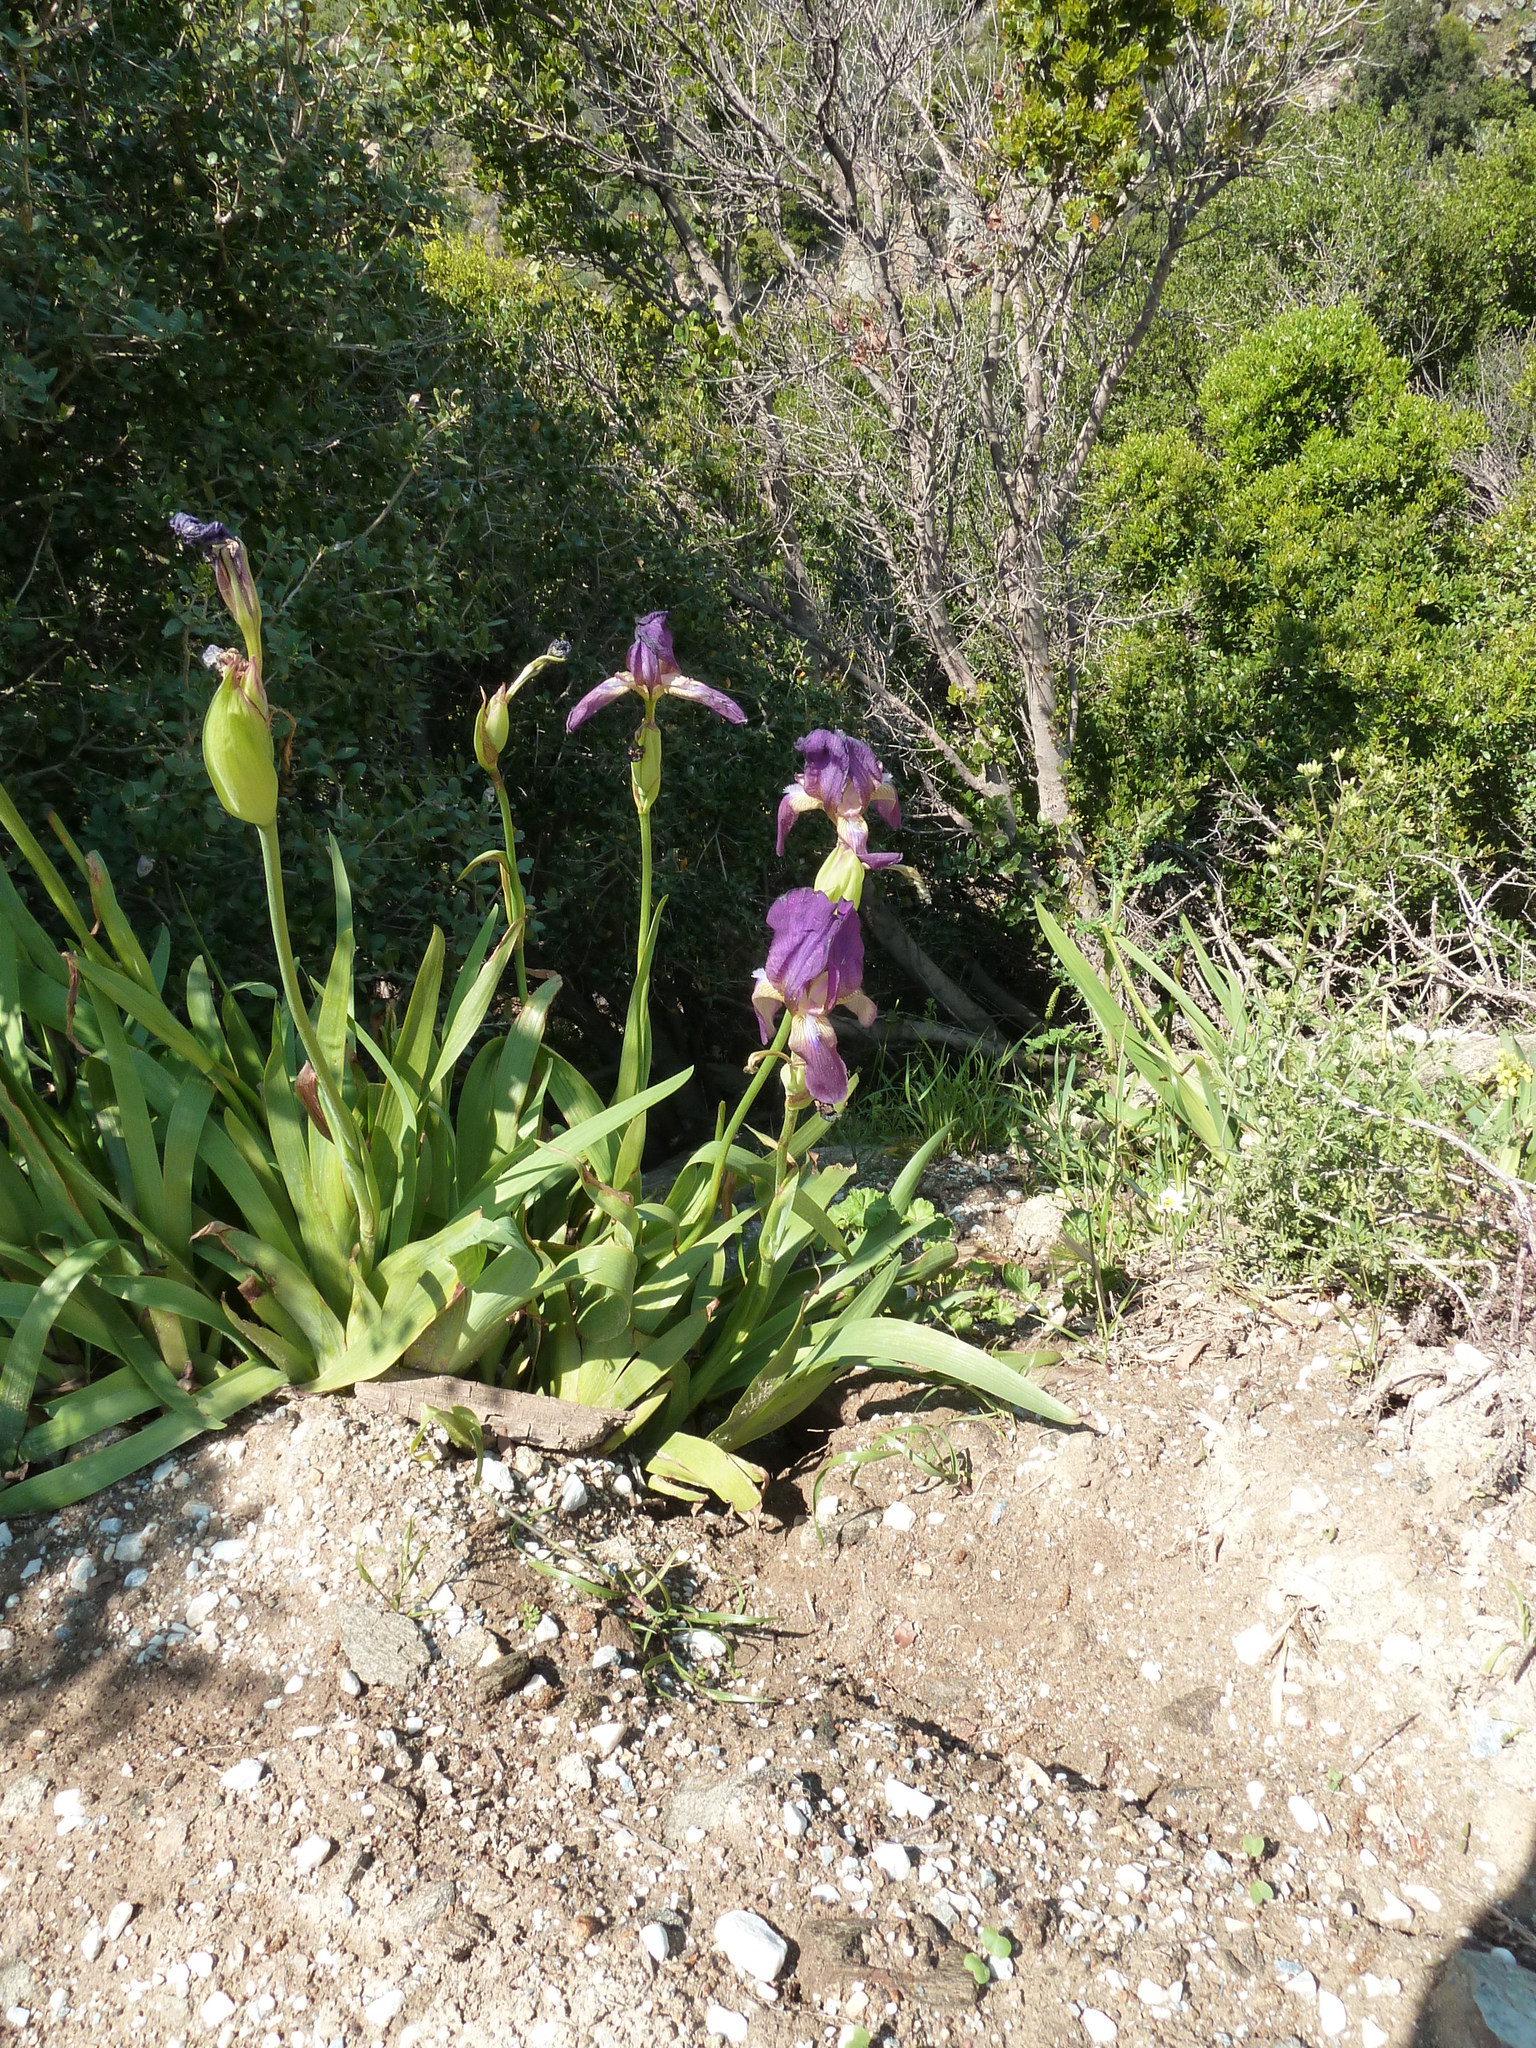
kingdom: Plantae
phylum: Tracheophyta
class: Liliopsida
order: Asparagales
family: Iridaceae
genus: Iris
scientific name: Iris germanica
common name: German iris
